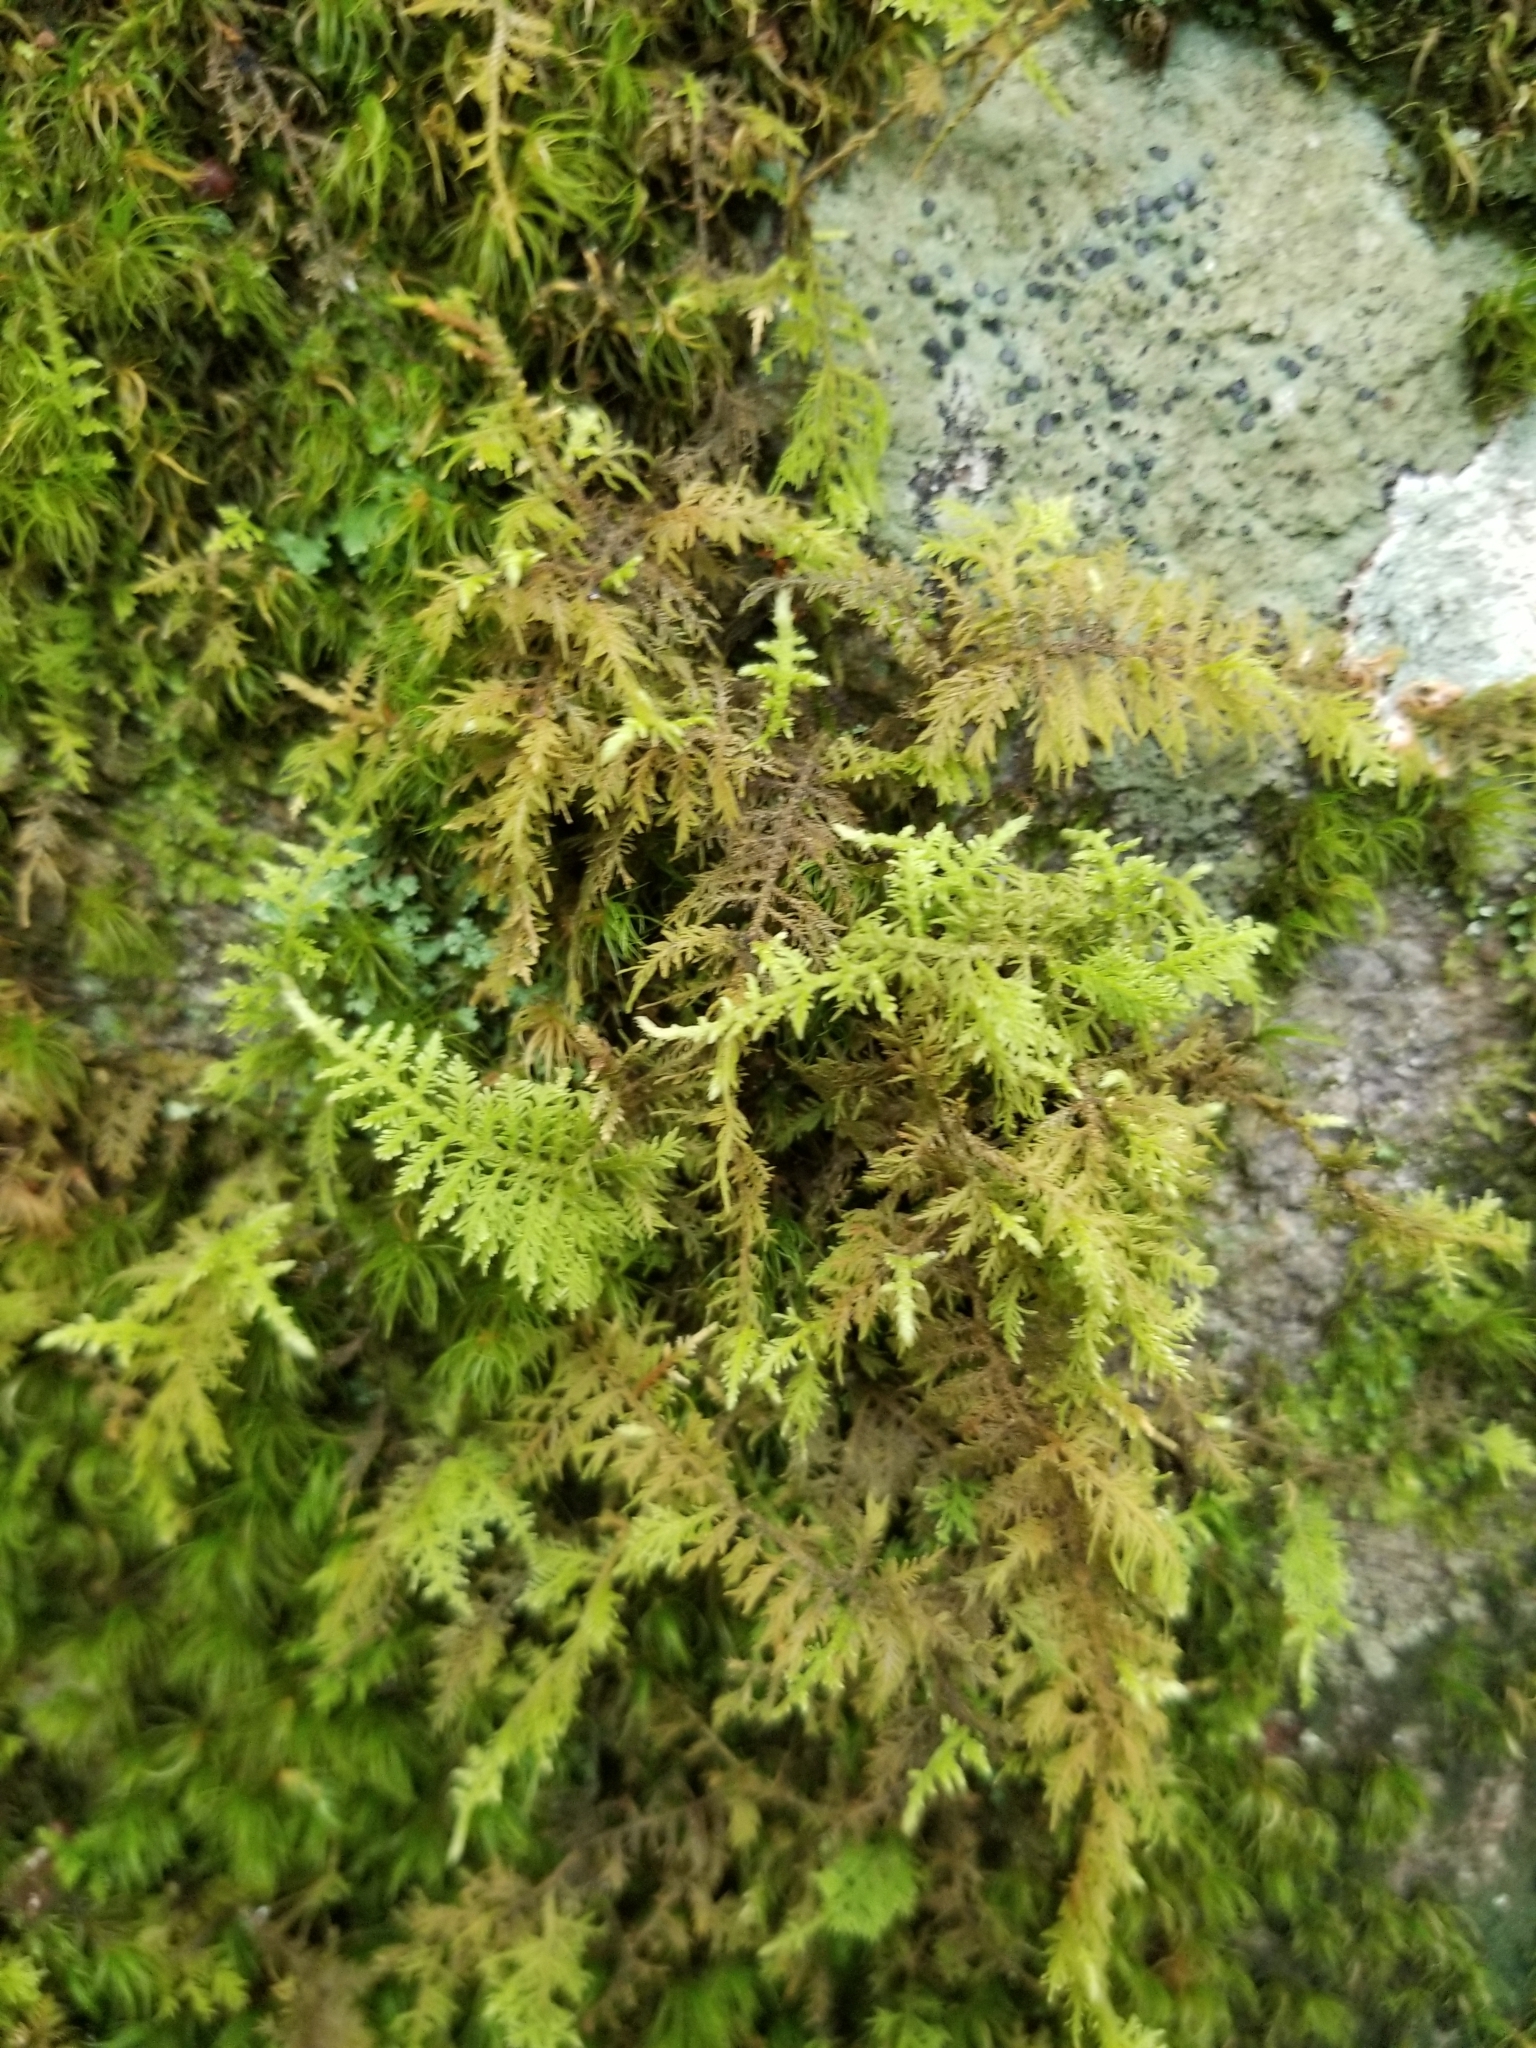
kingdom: Plantae
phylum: Bryophyta
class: Bryopsida
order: Hypnales
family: Thuidiaceae
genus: Thuidium
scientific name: Thuidium delicatulum
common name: Delicate fern moss
